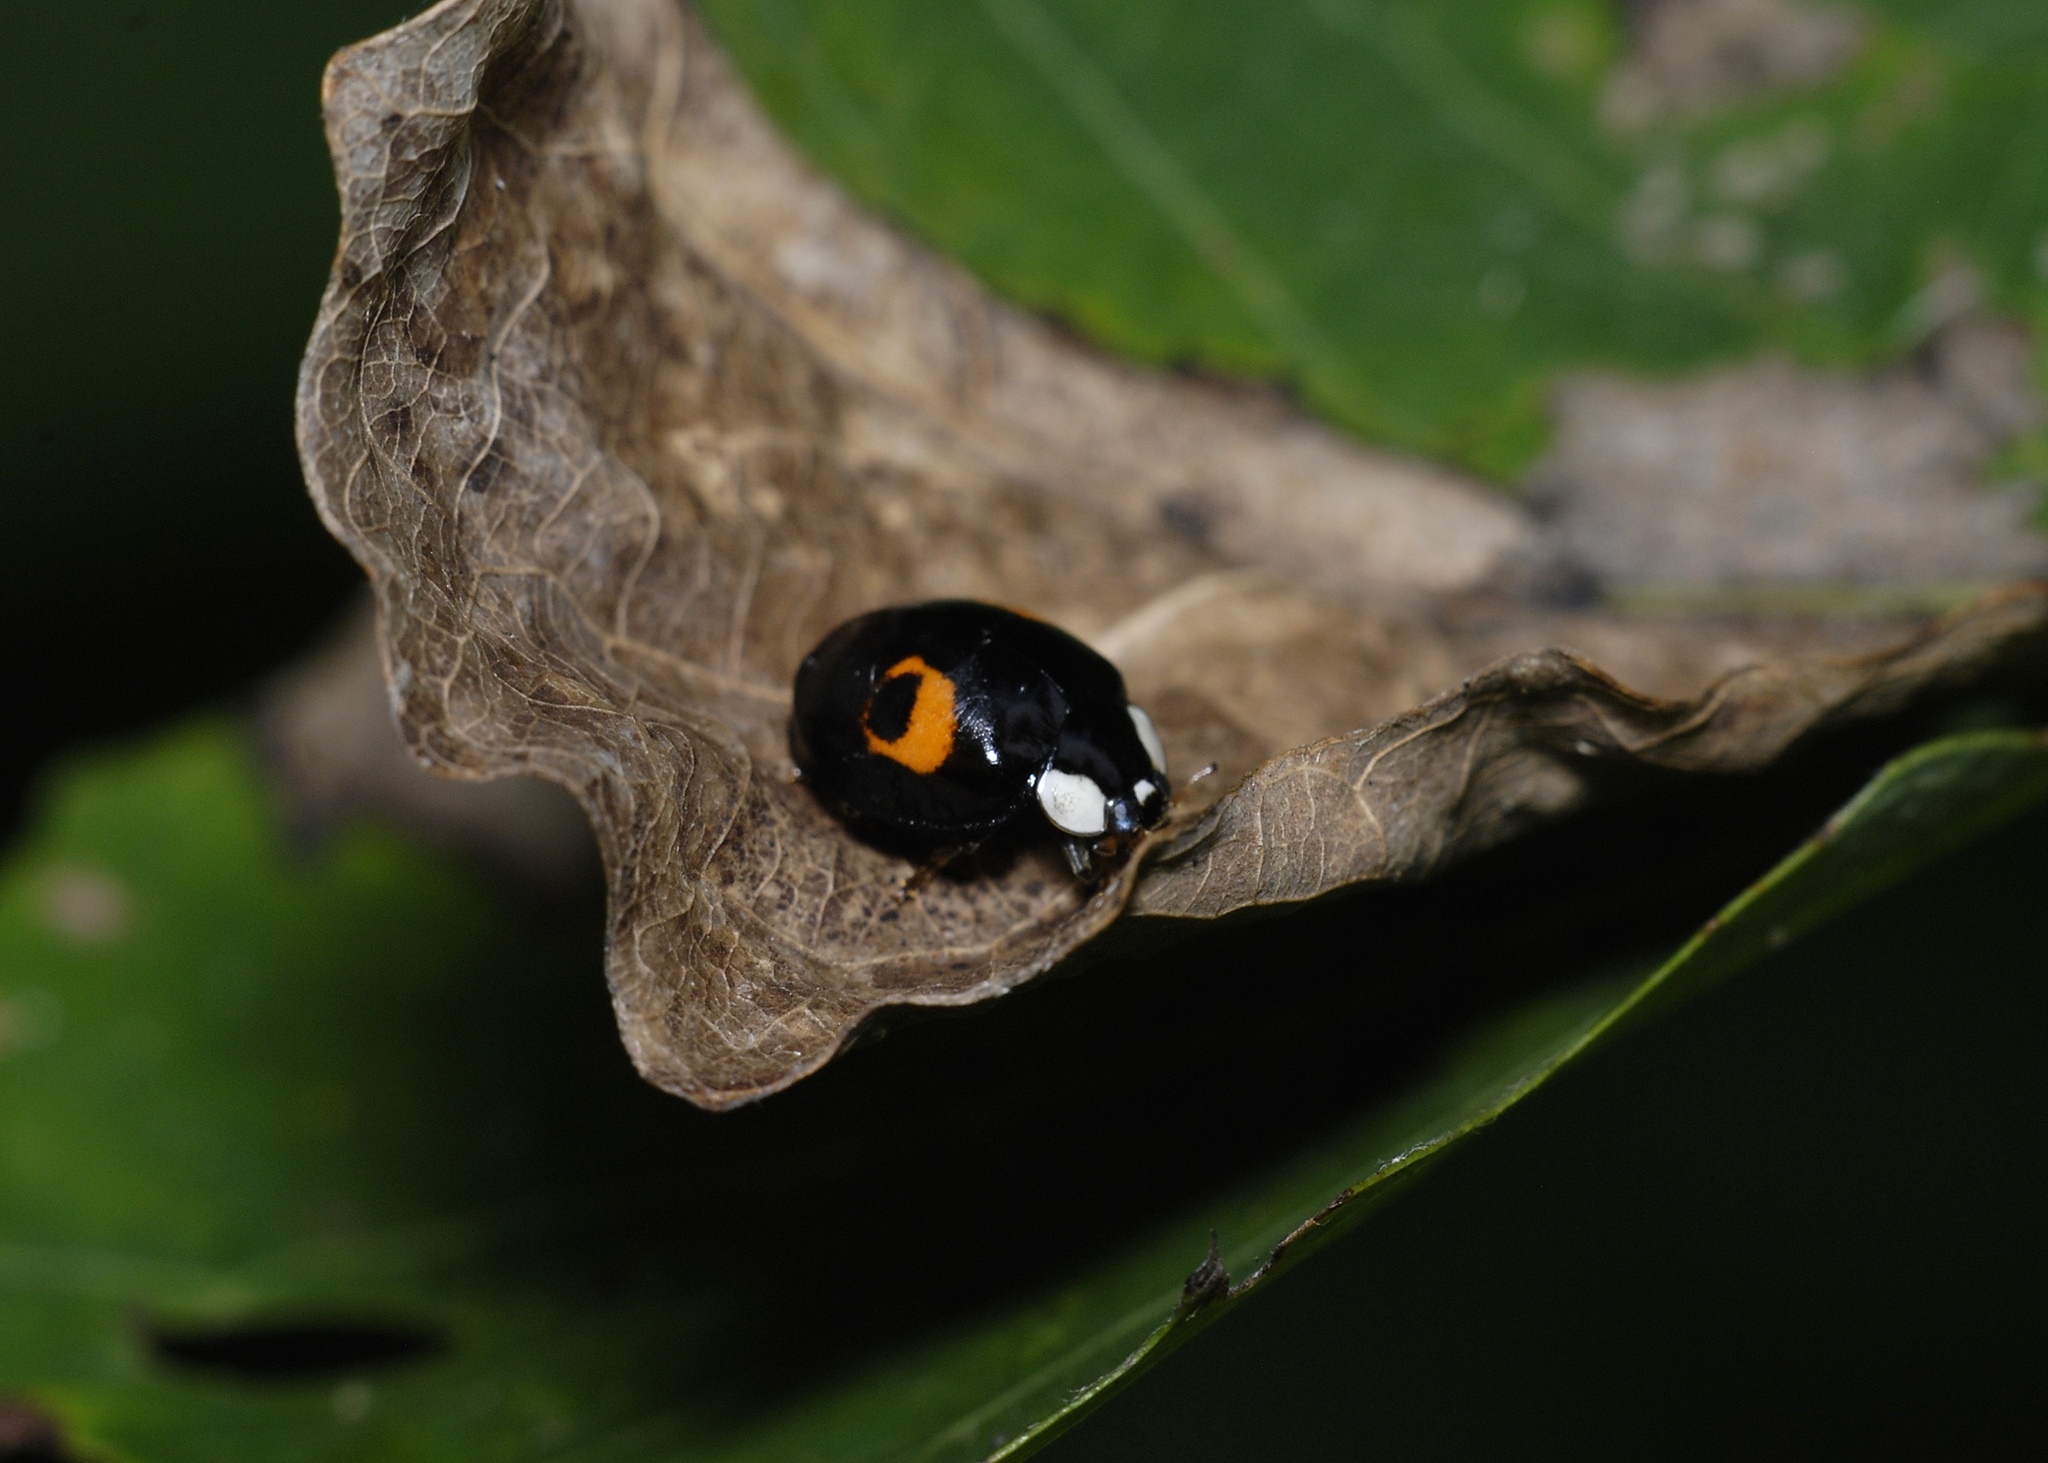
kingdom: Animalia
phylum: Arthropoda
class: Insecta
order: Coleoptera
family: Coccinellidae
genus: Harmonia
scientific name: Harmonia axyridis
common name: Harlequin ladybird
